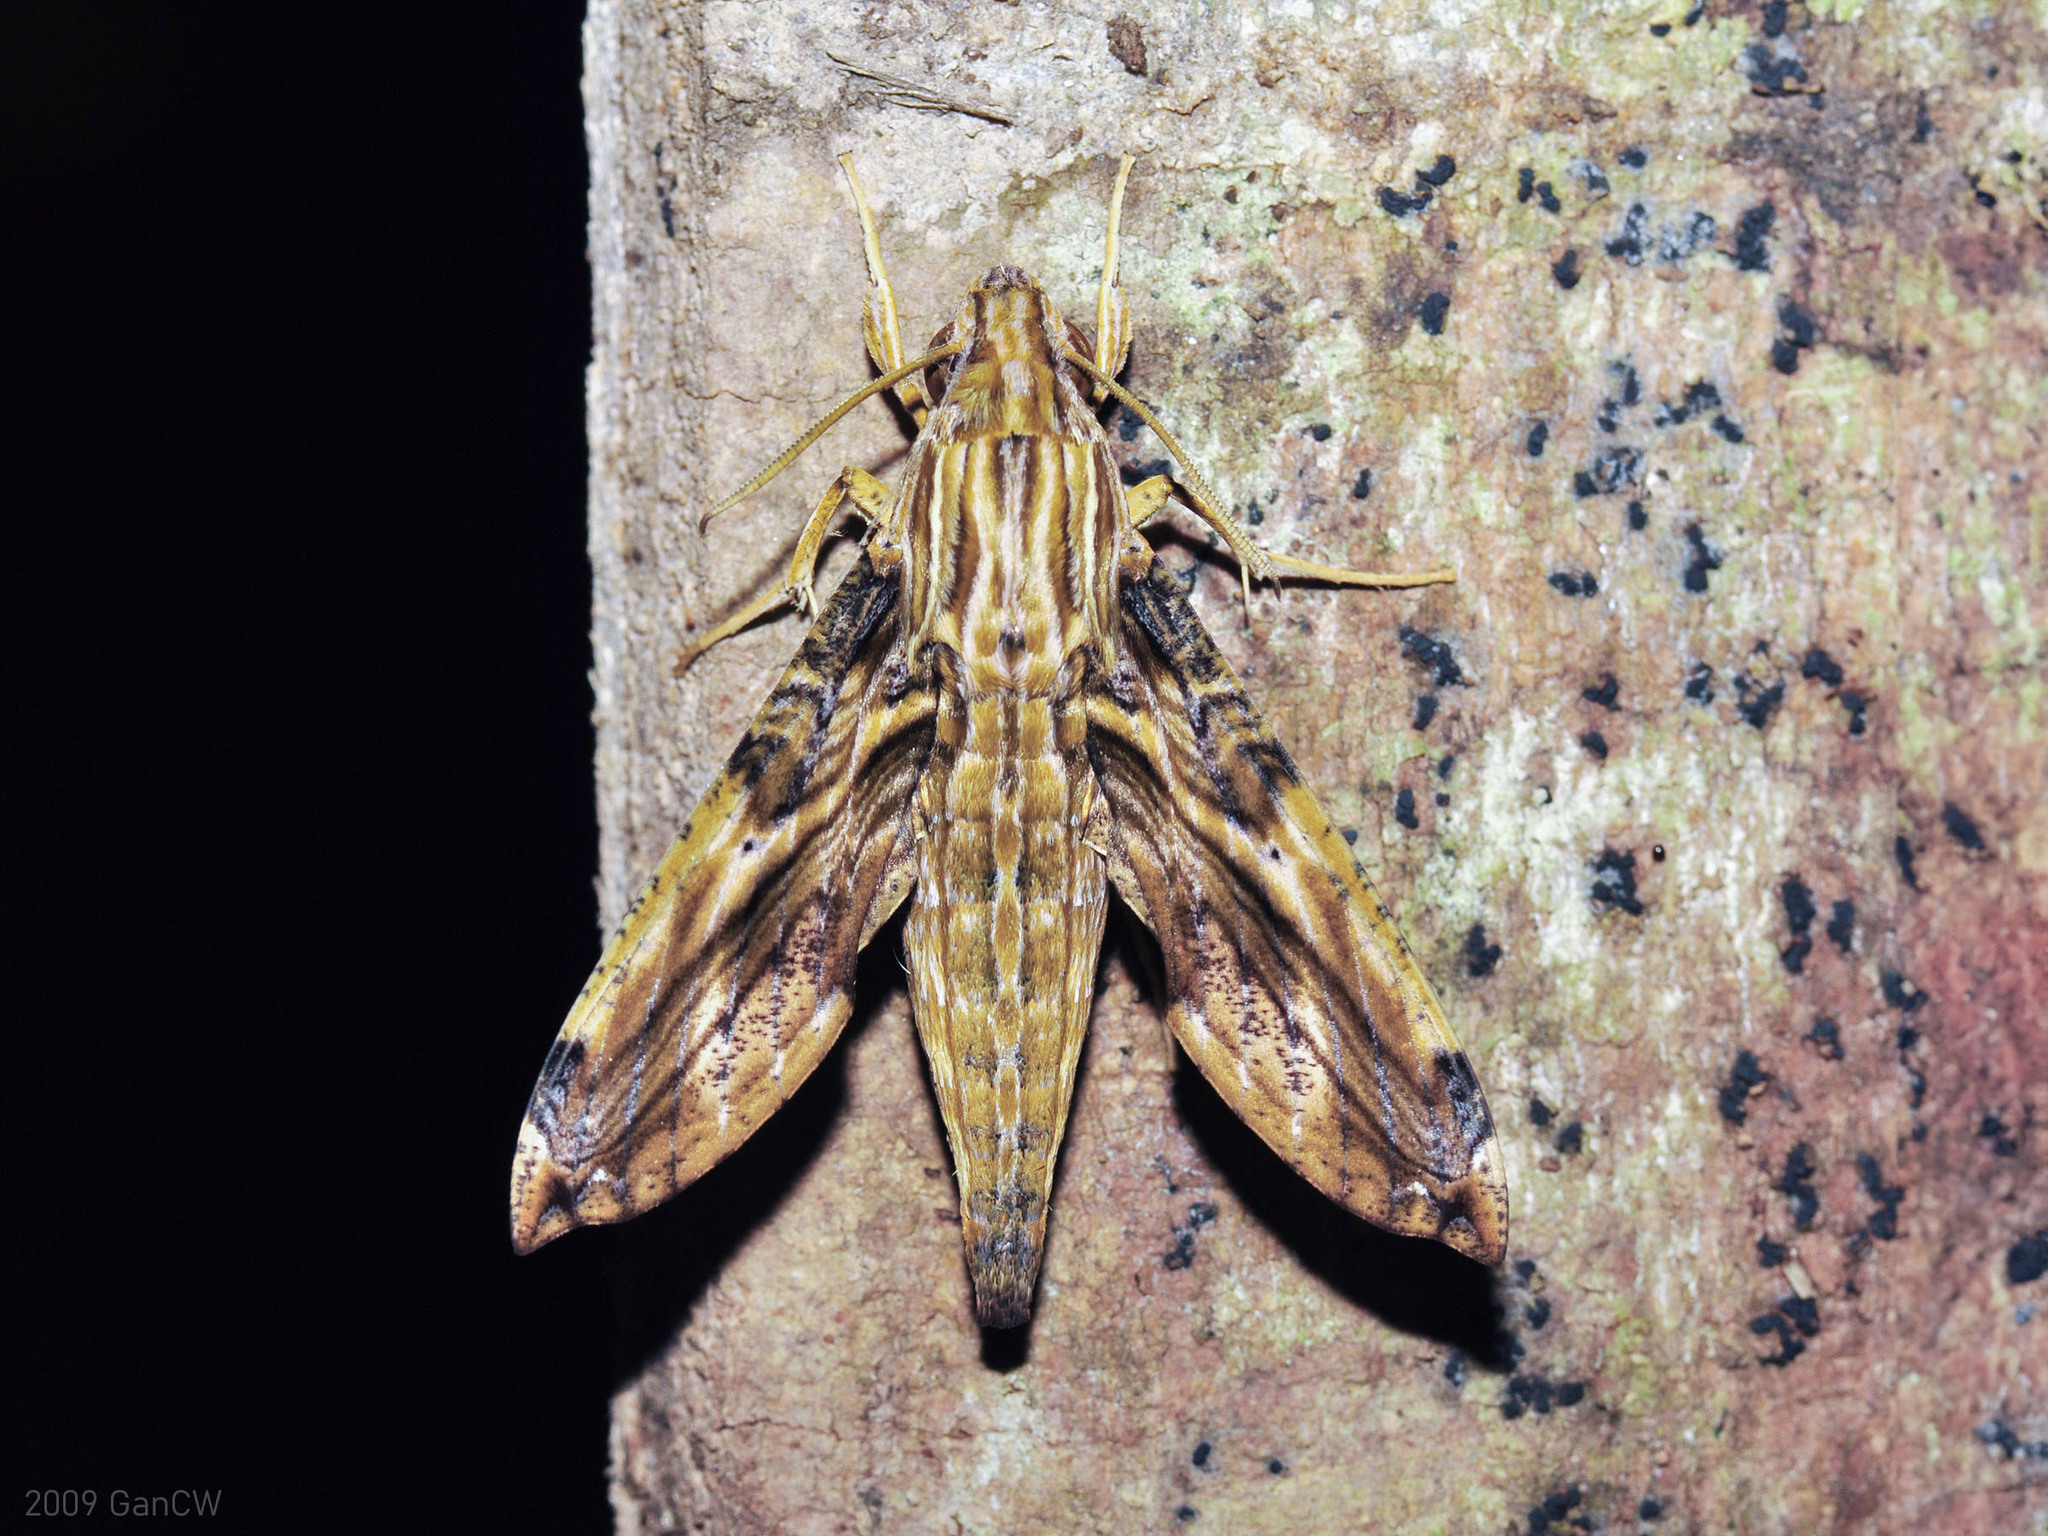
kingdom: Animalia
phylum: Arthropoda
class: Insecta
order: Lepidoptera
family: Sphingidae
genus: Eupanacra
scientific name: Eupanacra variolosa
